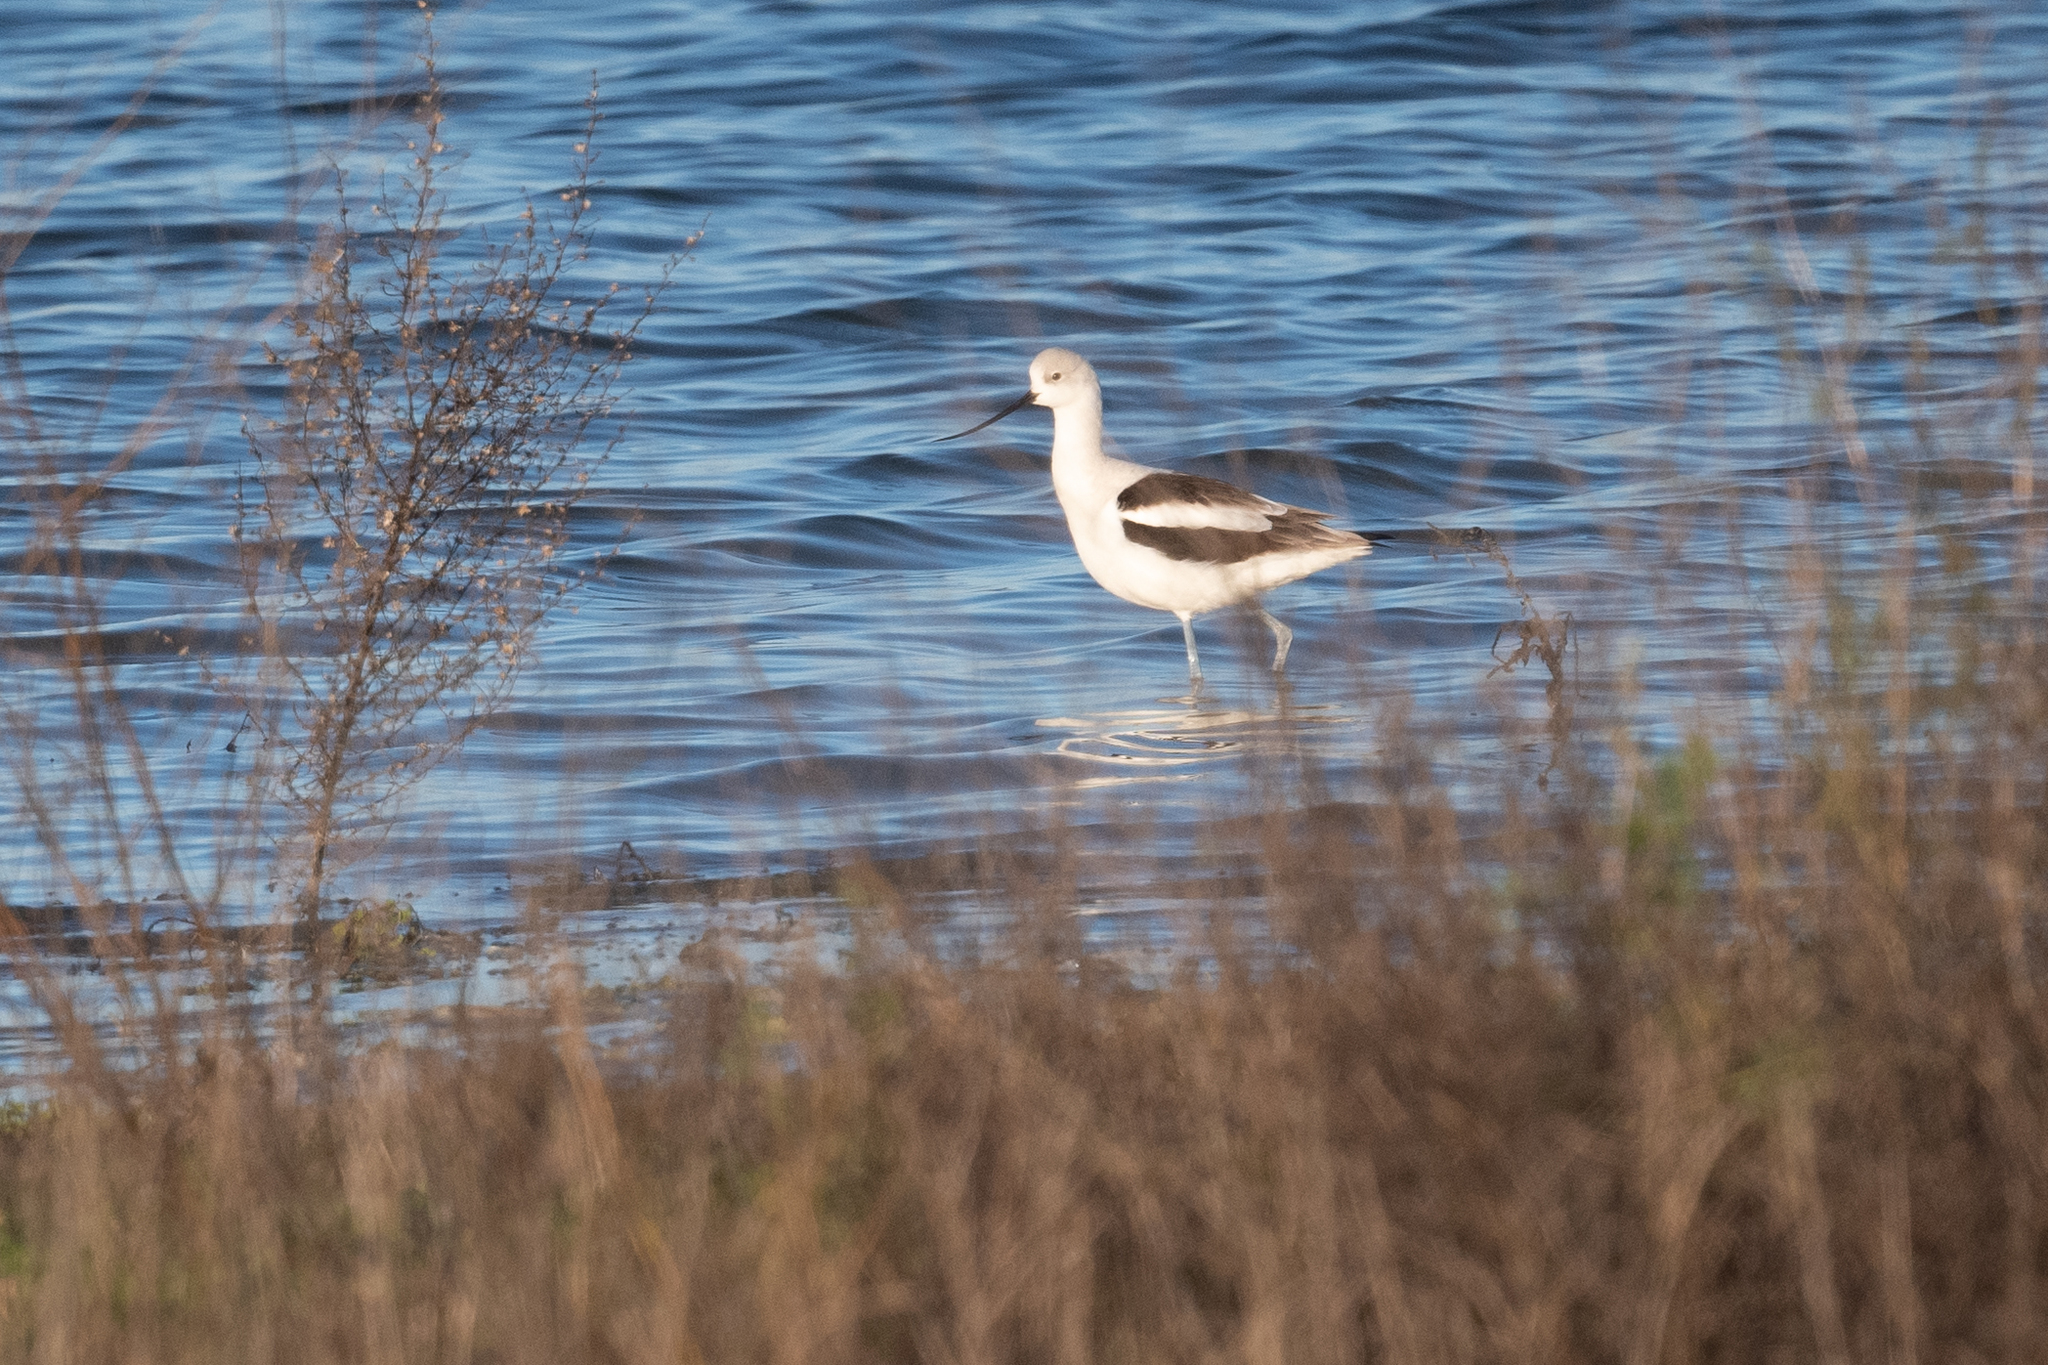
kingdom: Animalia
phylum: Chordata
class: Aves
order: Charadriiformes
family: Recurvirostridae
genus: Recurvirostra
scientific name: Recurvirostra americana
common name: American avocet
